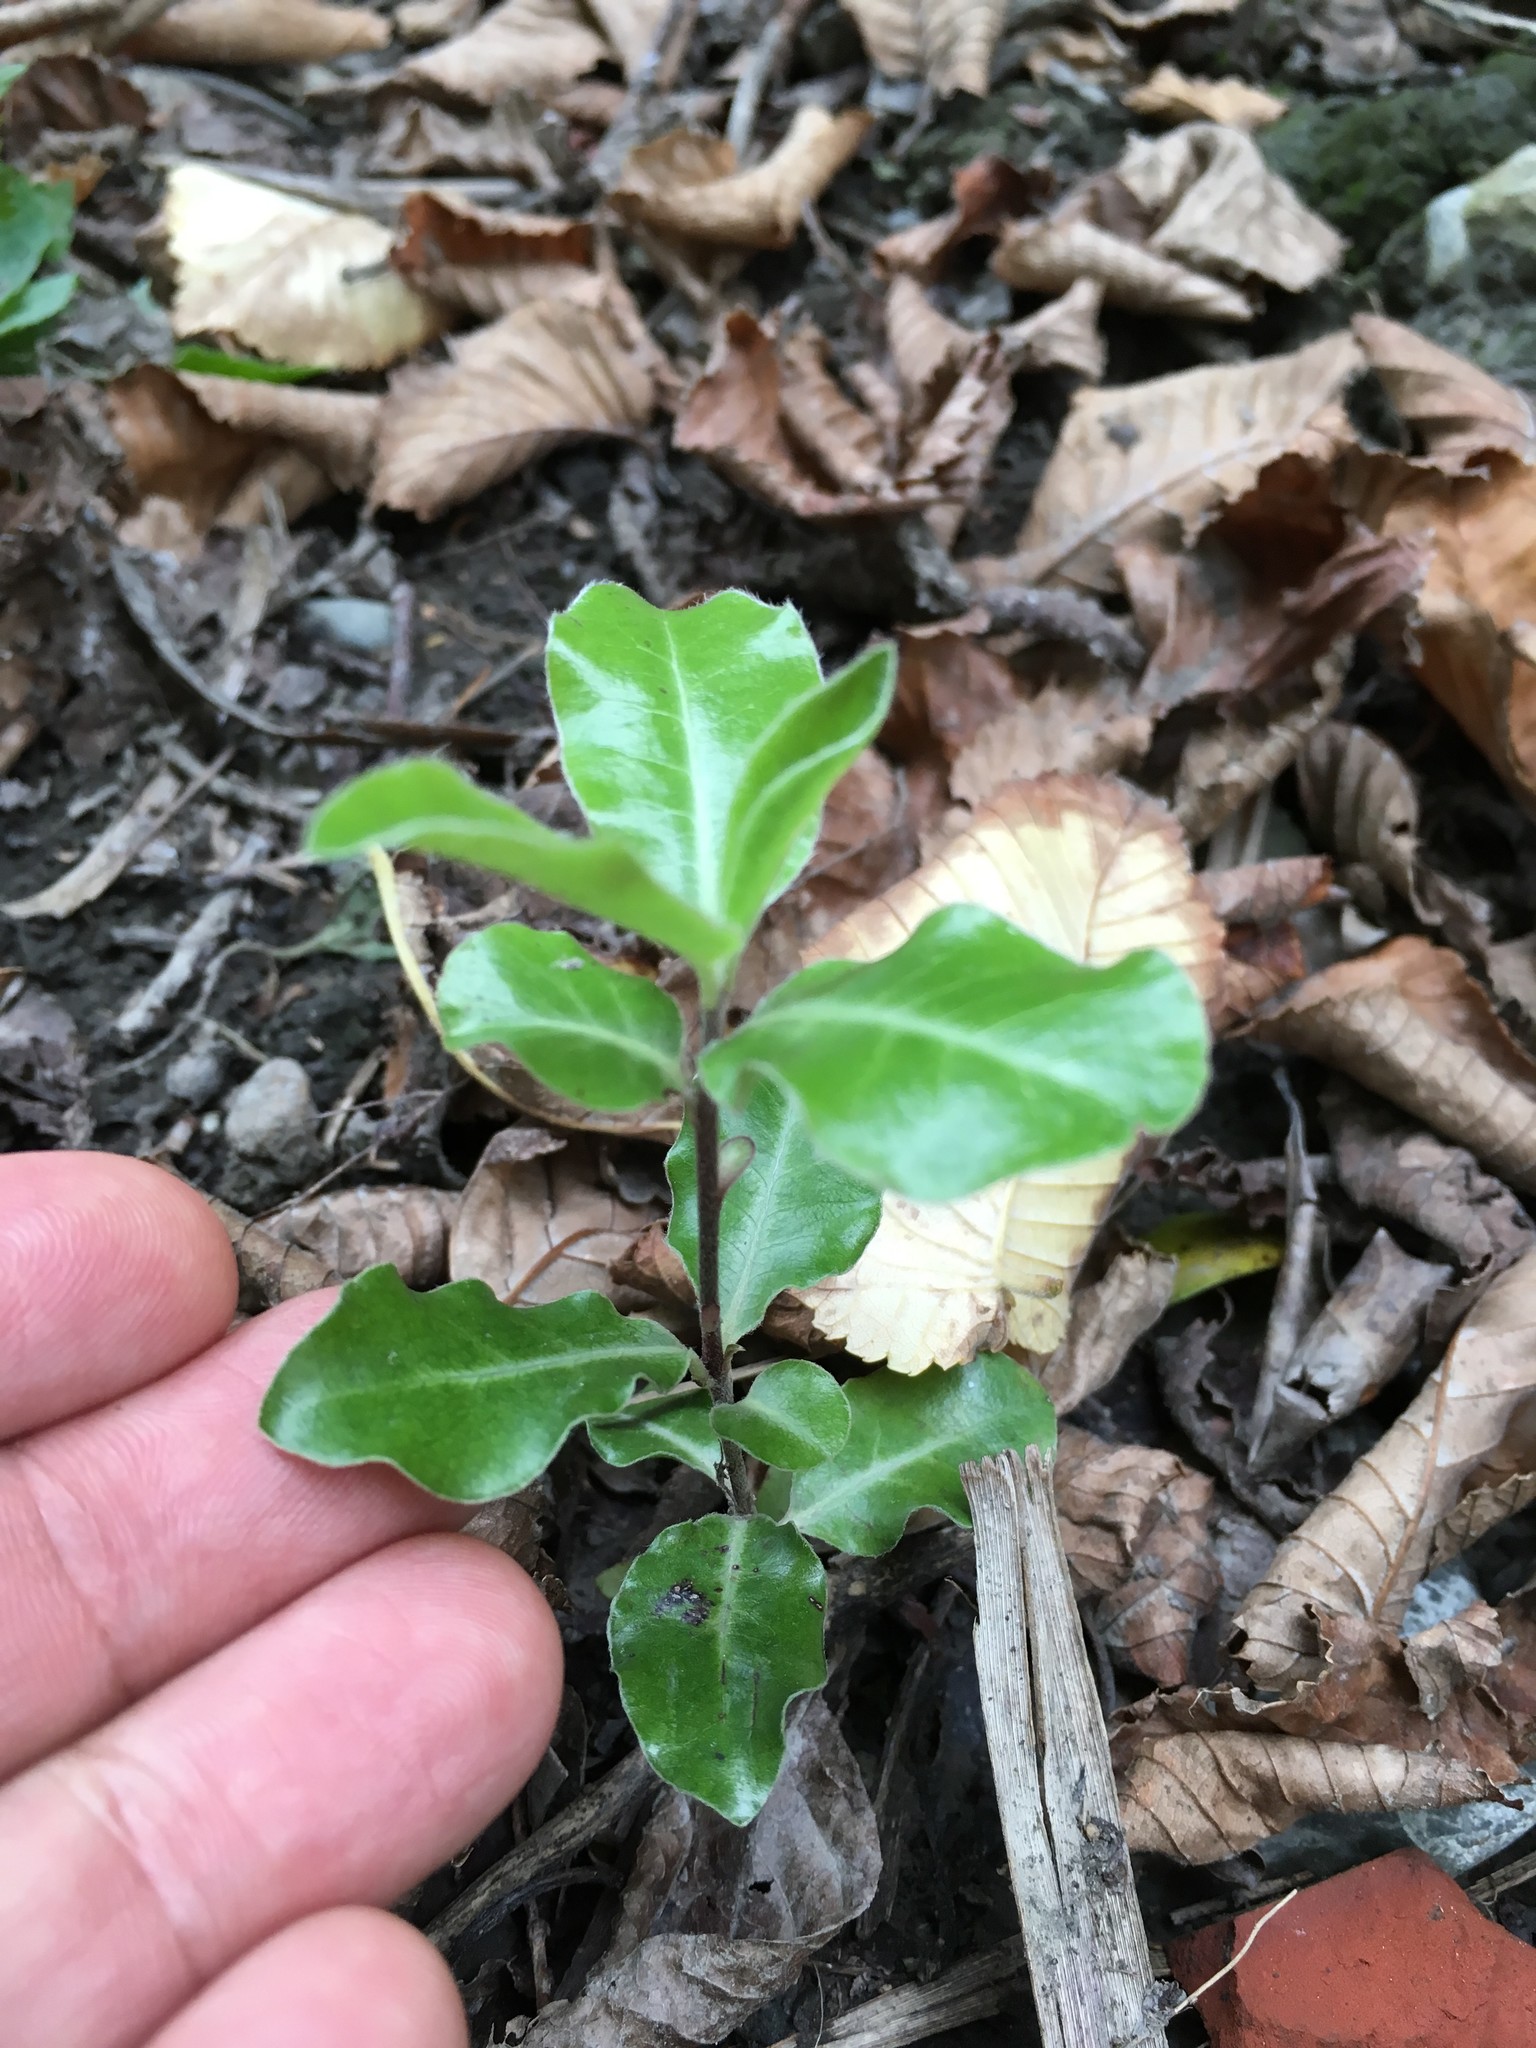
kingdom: Plantae
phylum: Tracheophyta
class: Magnoliopsida
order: Apiales
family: Pittosporaceae
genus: Pittosporum
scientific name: Pittosporum tenuifolium
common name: Kohuhu
